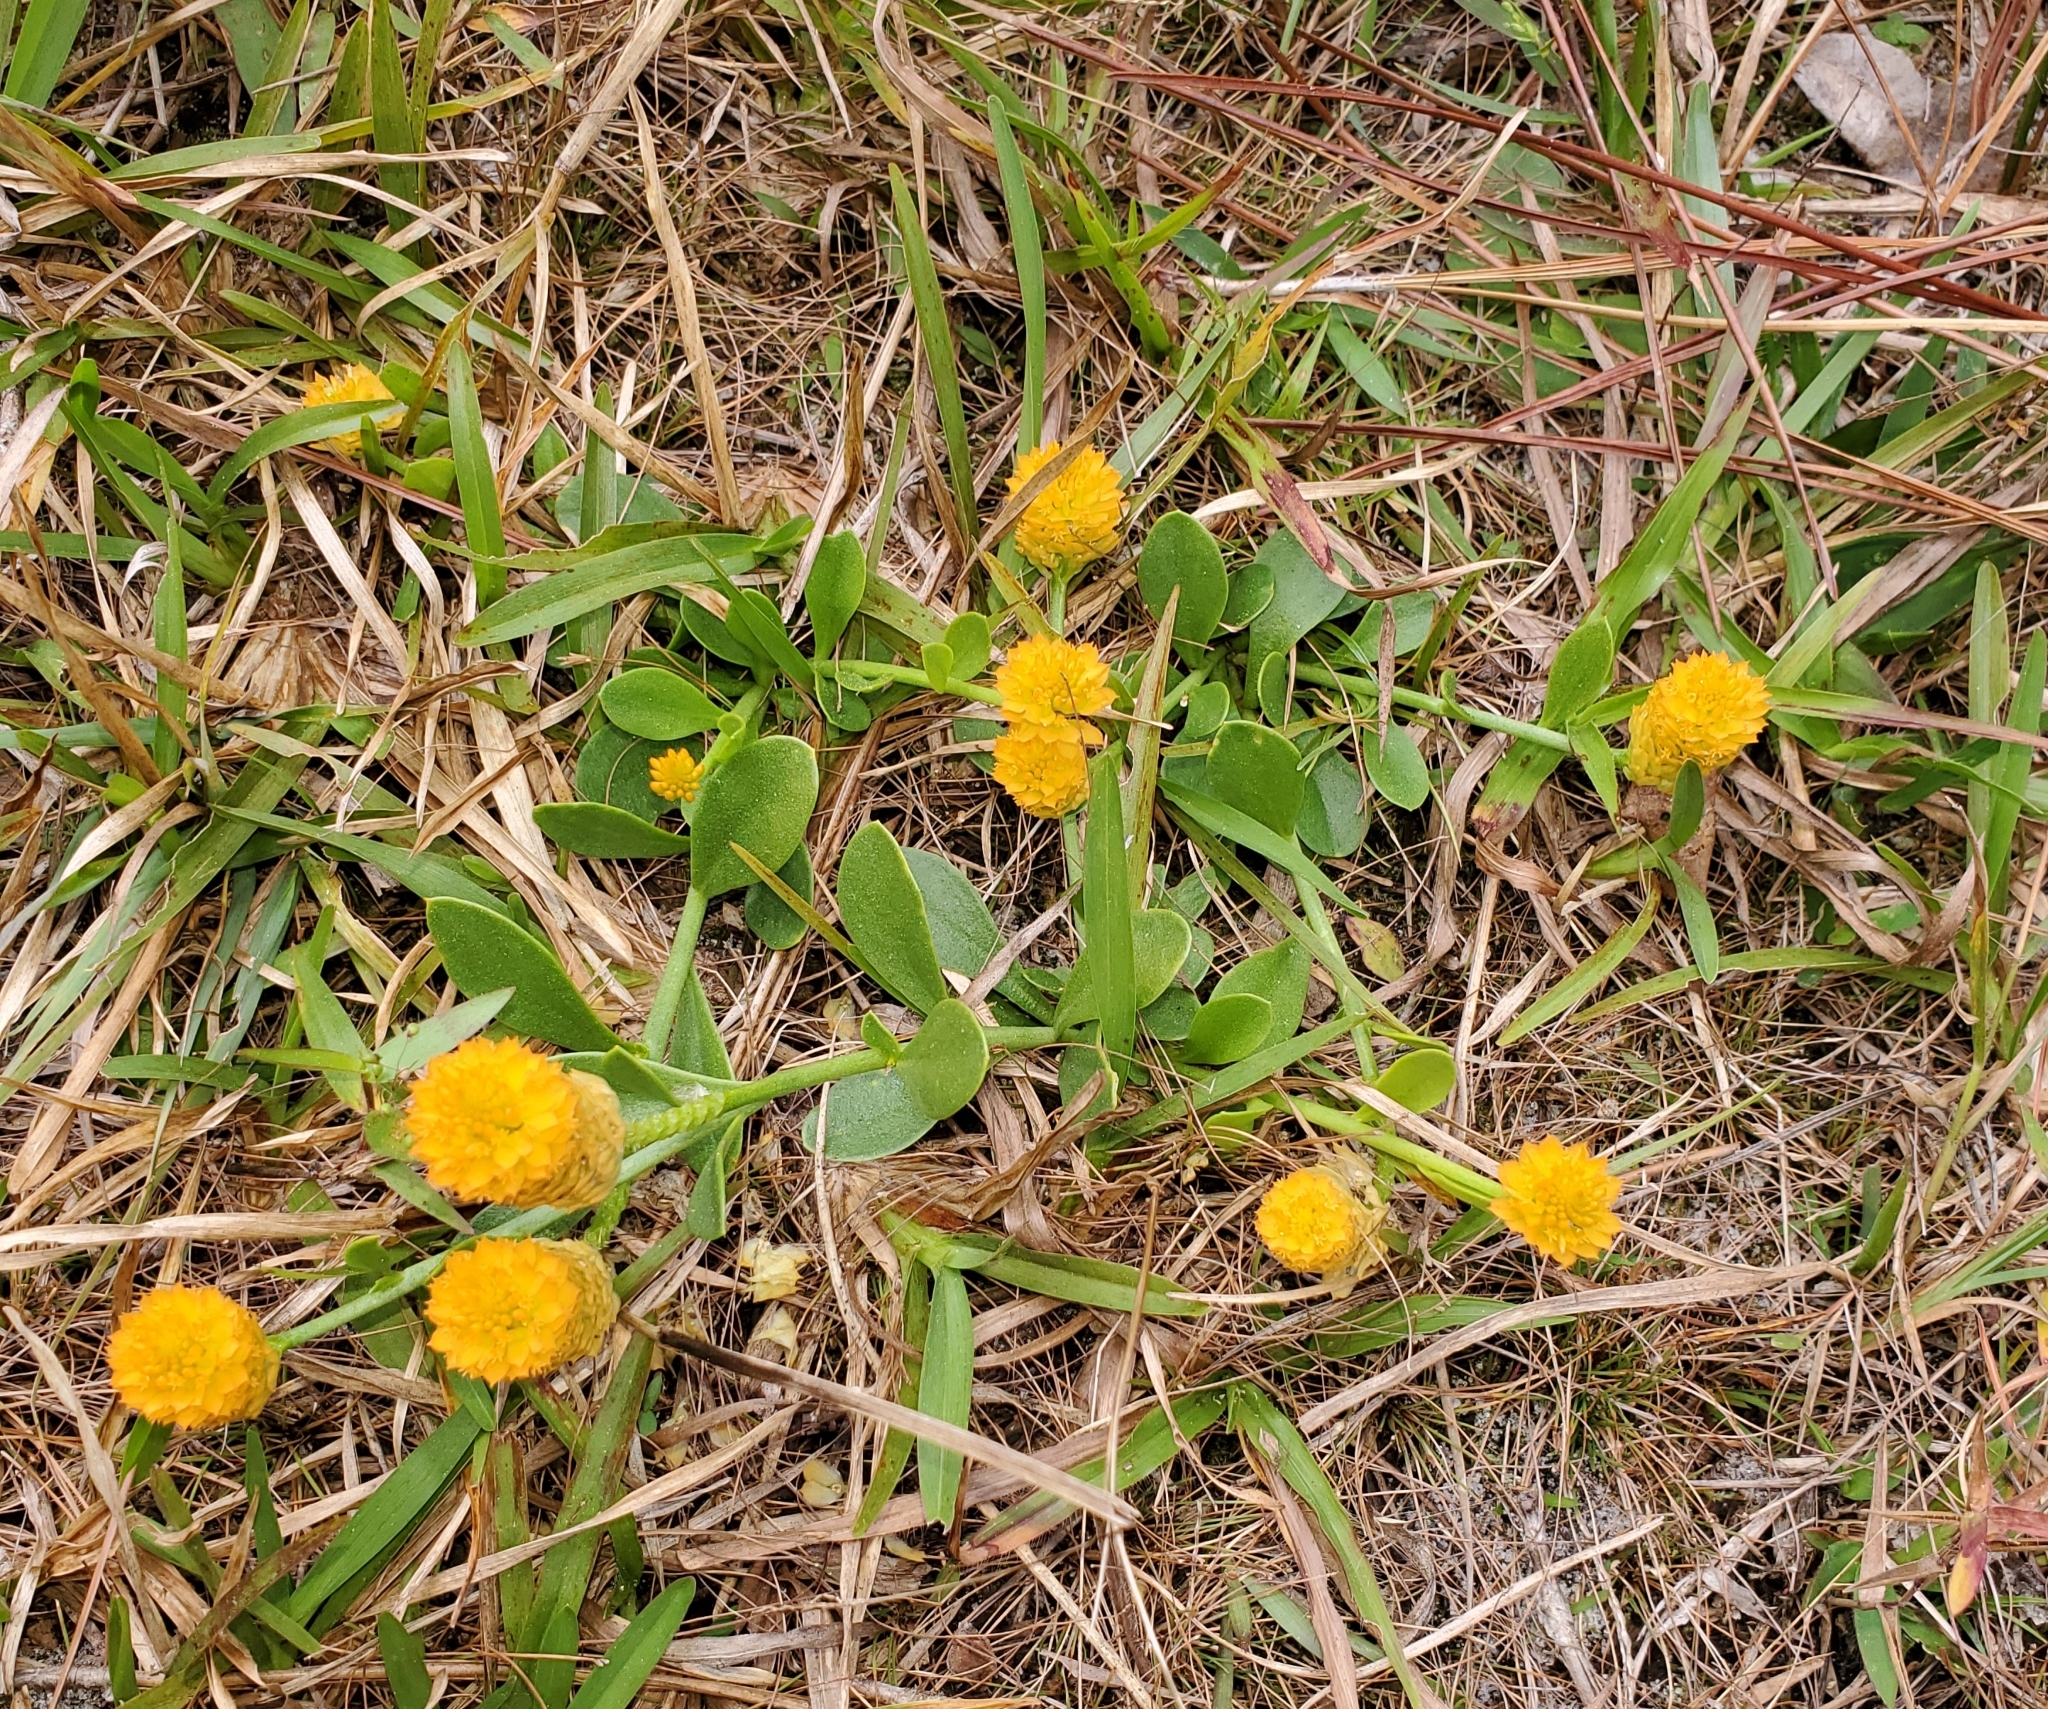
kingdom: Plantae
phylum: Tracheophyta
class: Magnoliopsida
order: Fabales
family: Polygalaceae
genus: Polygala
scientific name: Polygala lutea
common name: Orange milkwort
